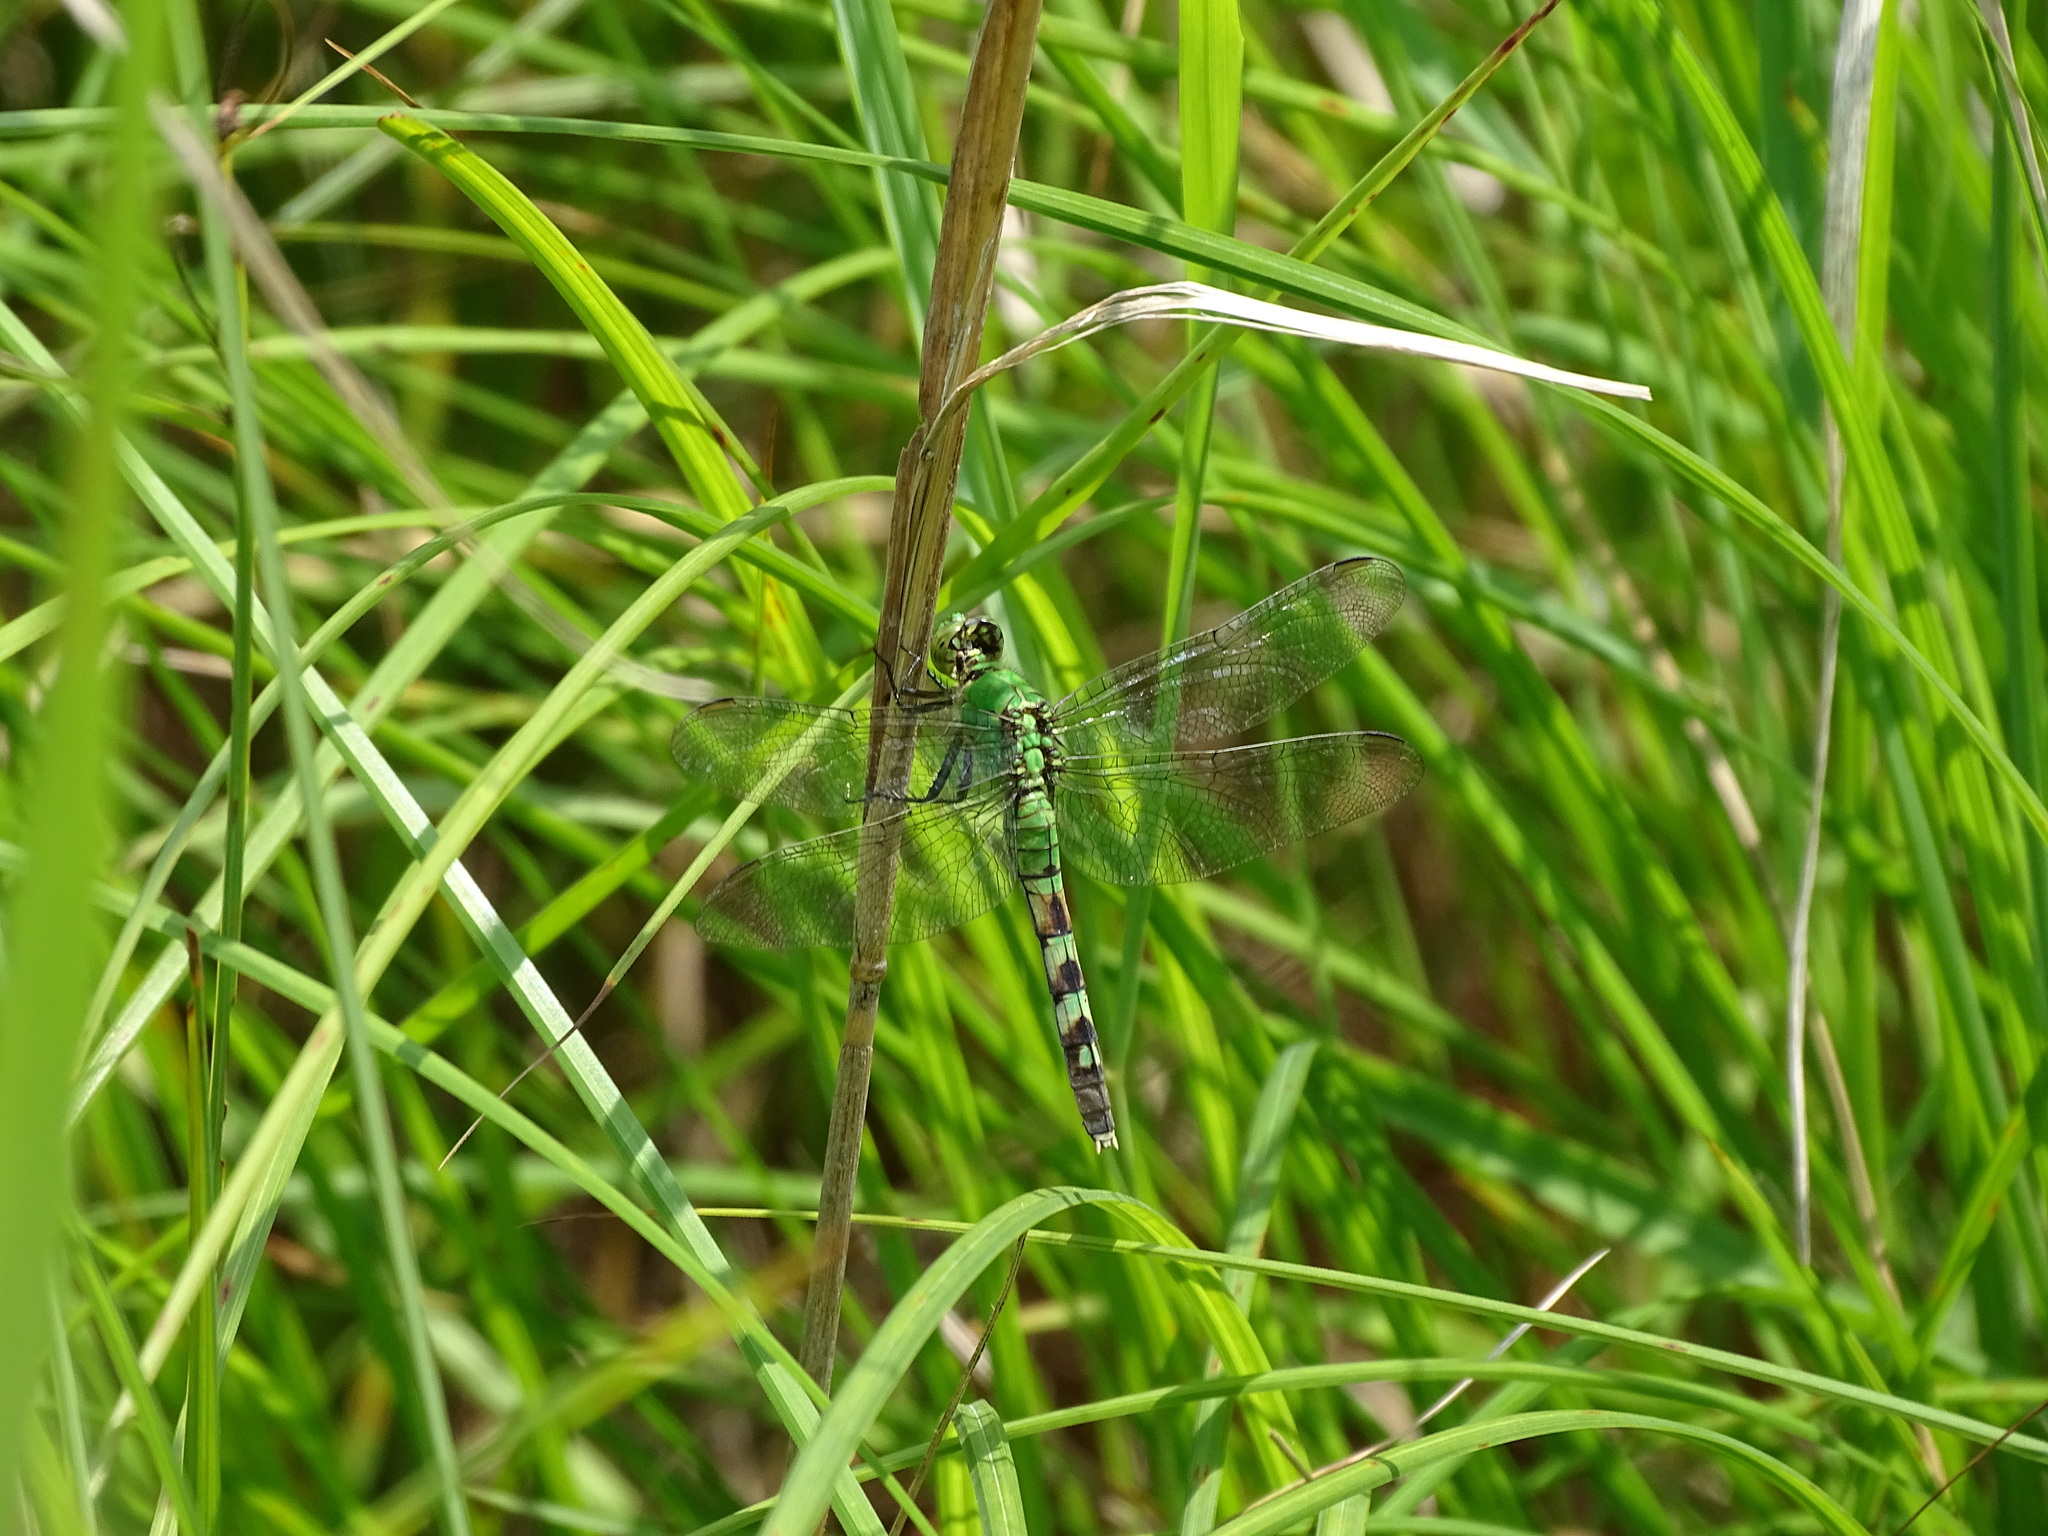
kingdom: Animalia
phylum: Arthropoda
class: Insecta
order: Odonata
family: Libellulidae
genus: Erythemis
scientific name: Erythemis simplicicollis
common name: Eastern pondhawk
